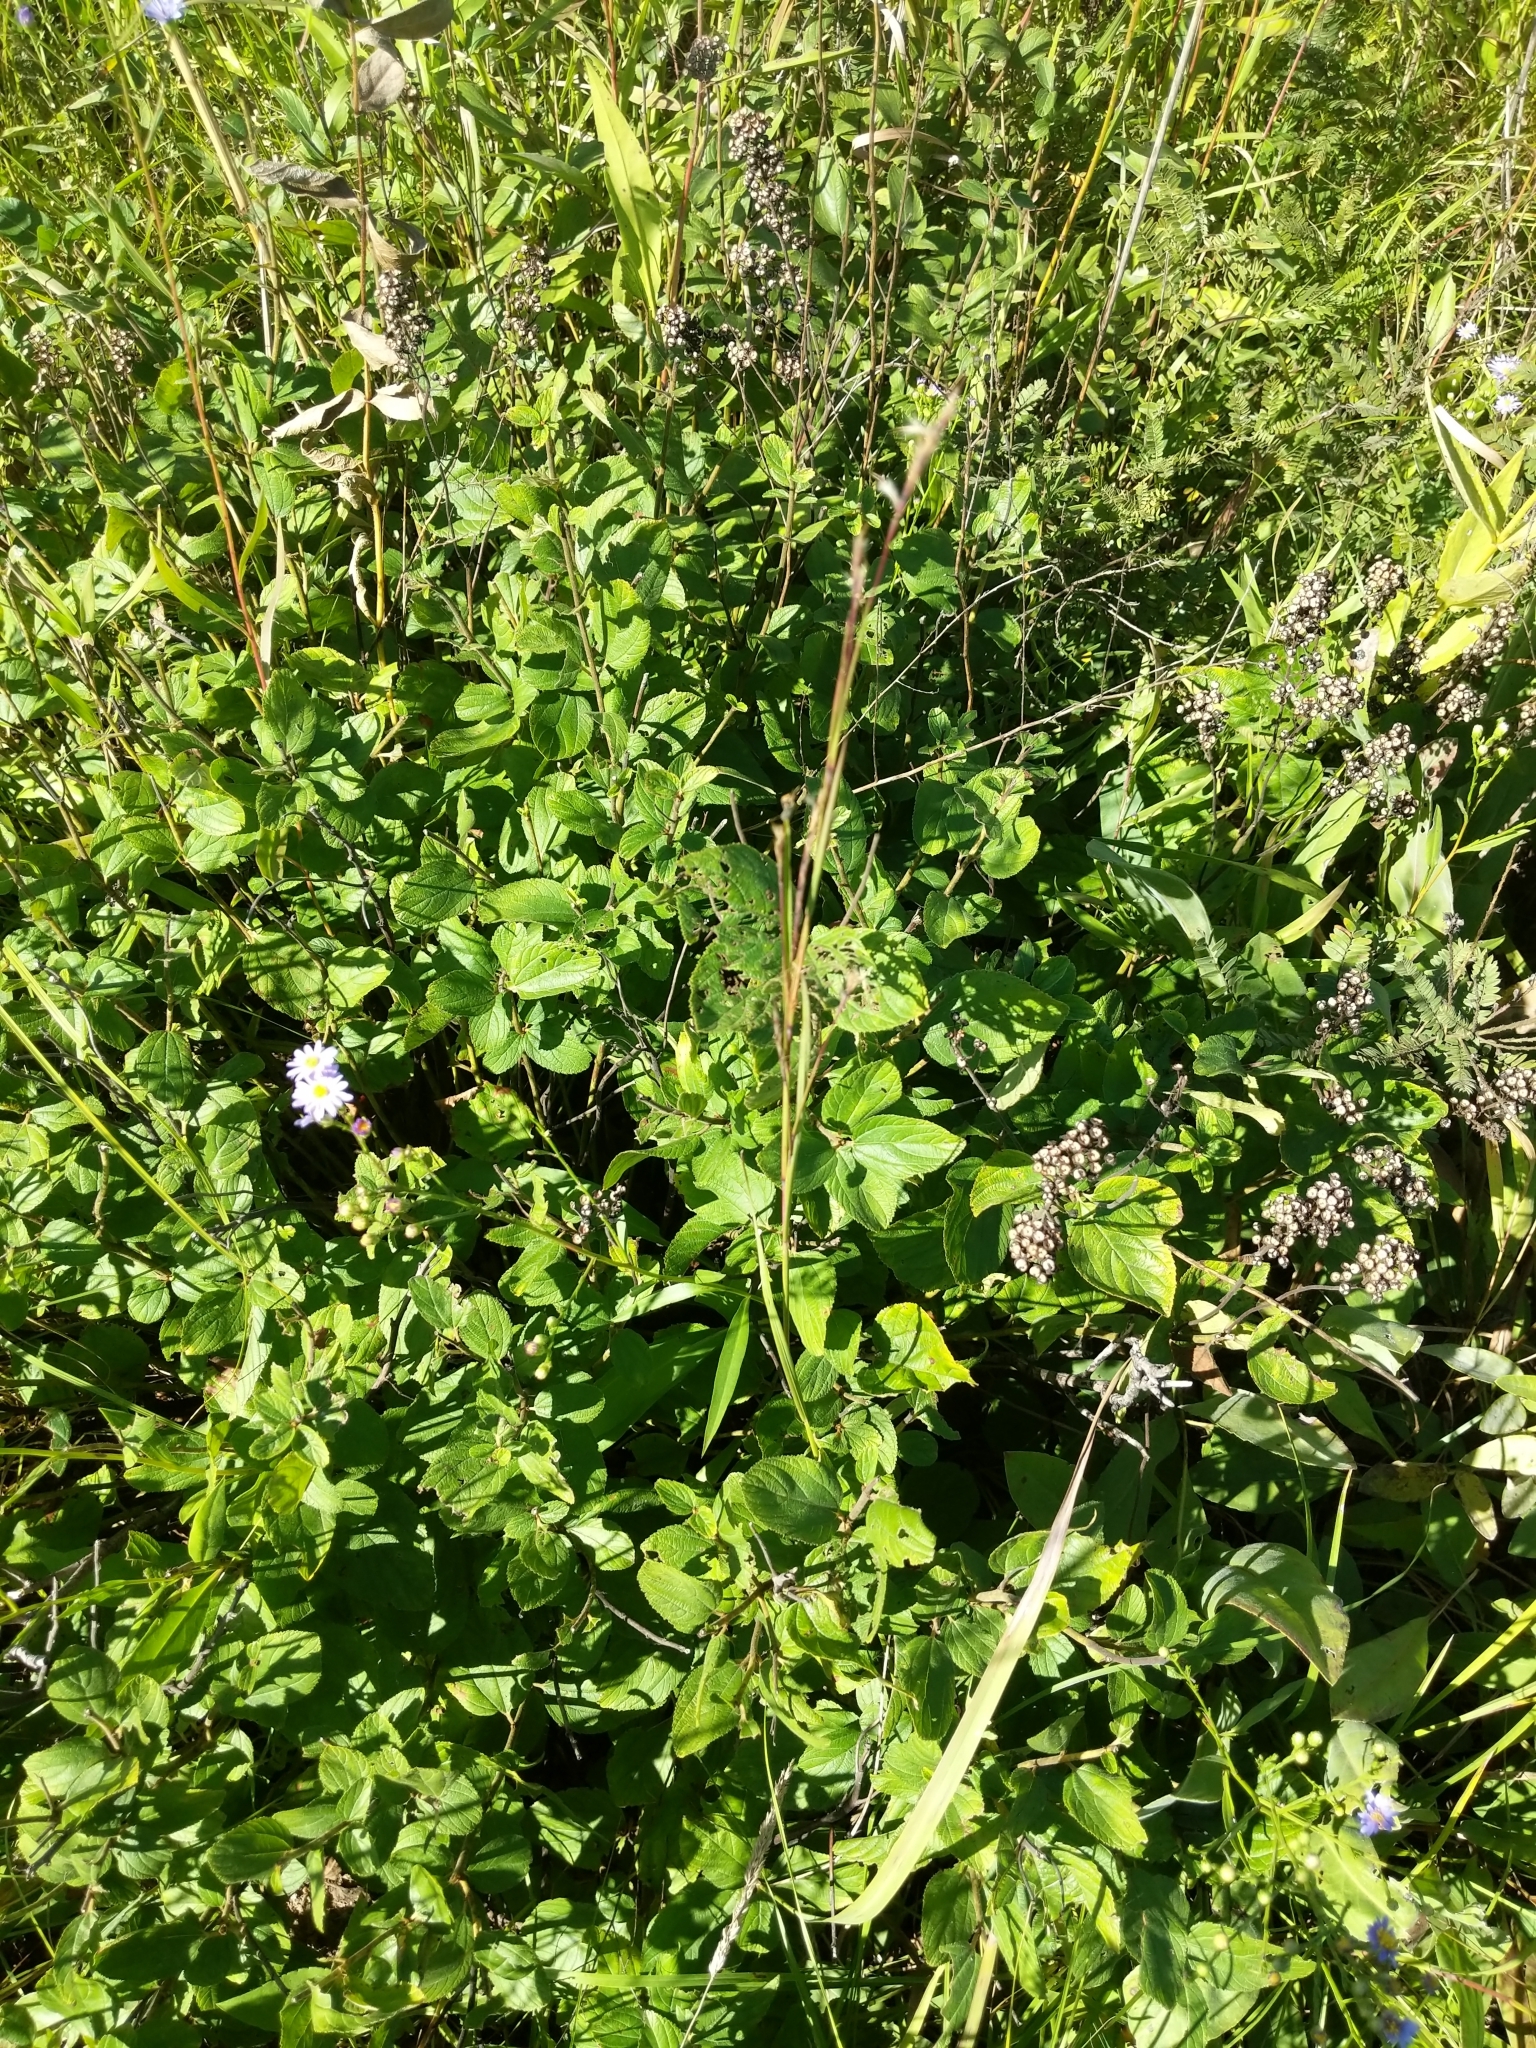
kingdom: Plantae
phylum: Tracheophyta
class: Magnoliopsida
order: Rosales
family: Rhamnaceae
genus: Ceanothus
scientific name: Ceanothus americanus
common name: Redroot
